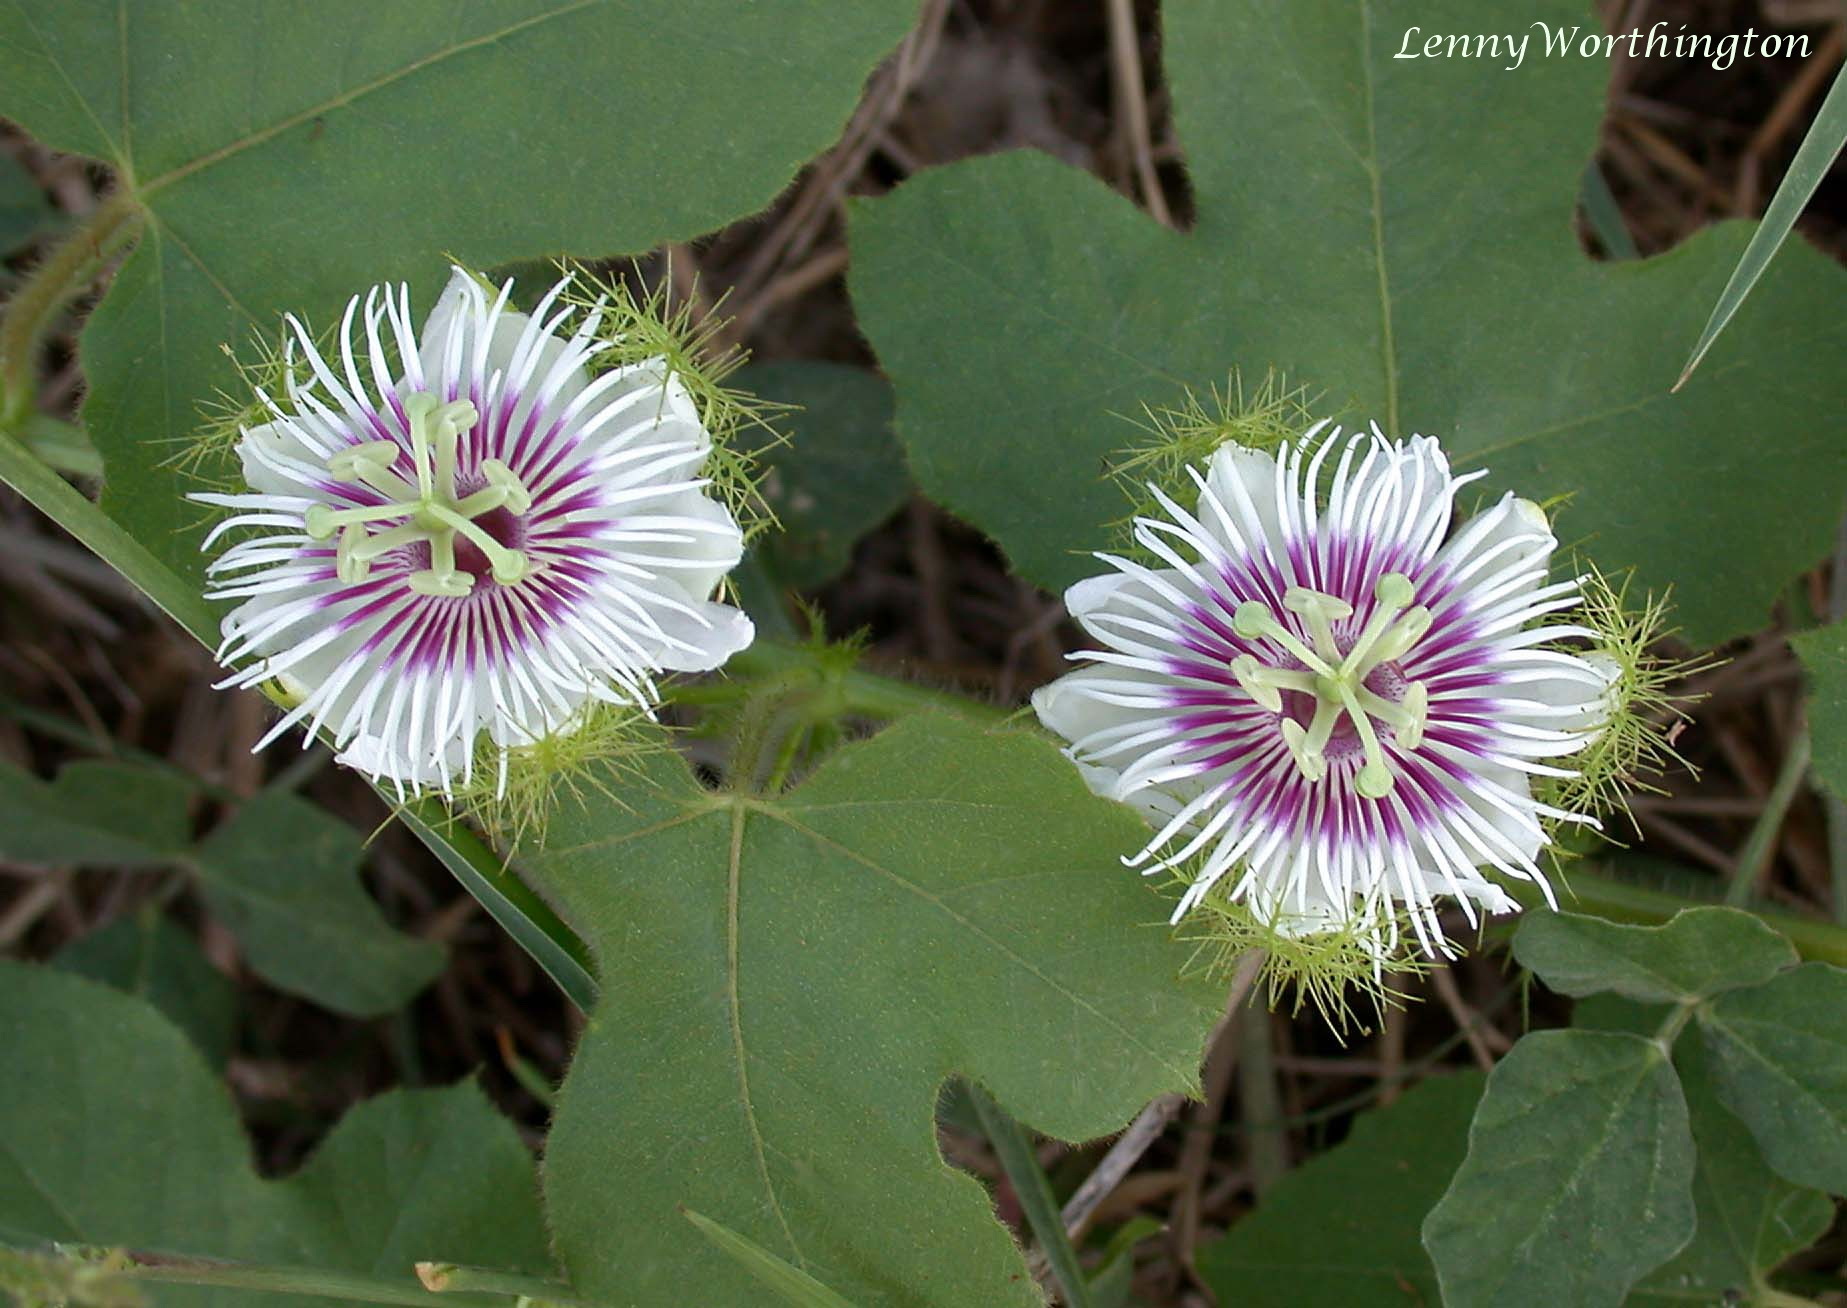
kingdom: Plantae
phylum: Tracheophyta
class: Magnoliopsida
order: Malpighiales
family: Passifloraceae
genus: Passiflora
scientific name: Passiflora foetida
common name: Fetid passionflower
